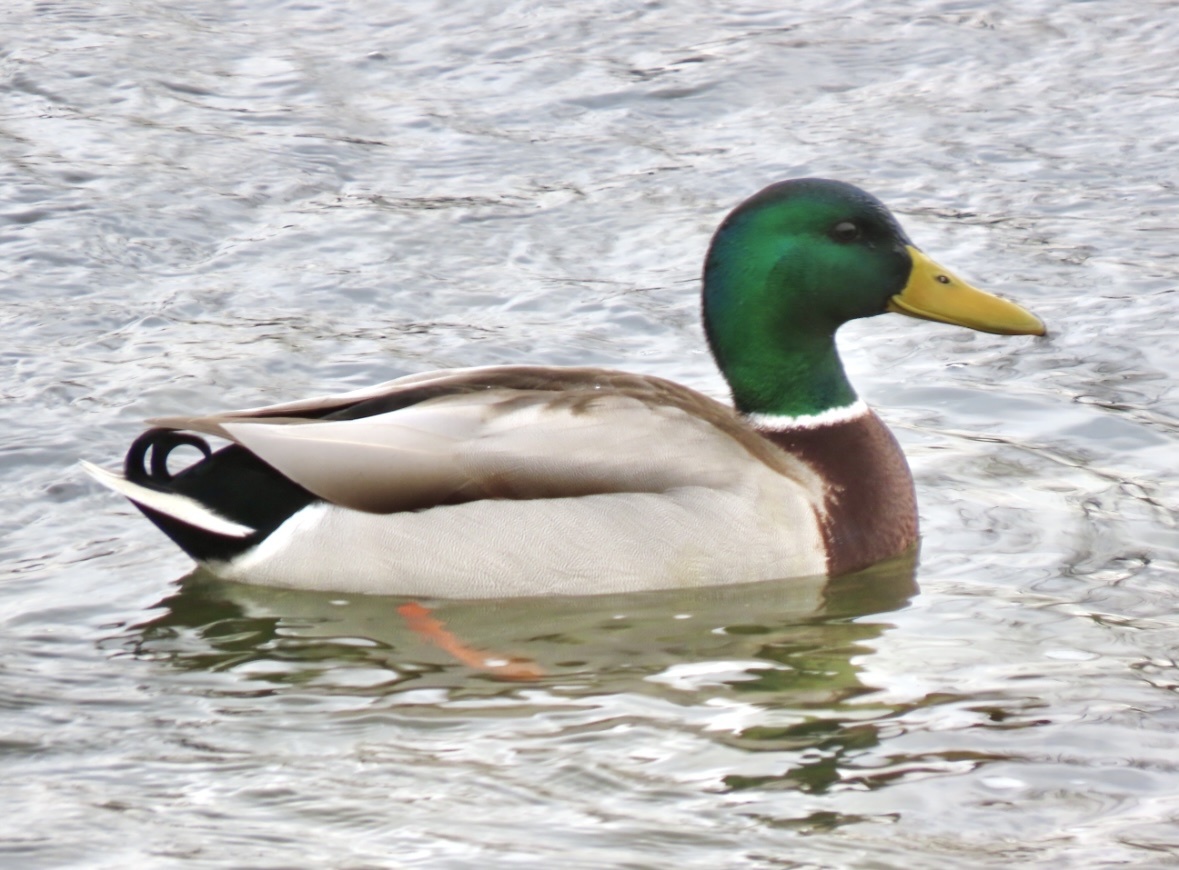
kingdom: Animalia
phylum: Chordata
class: Aves
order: Anseriformes
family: Anatidae
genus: Anas
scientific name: Anas platyrhynchos
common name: Mallard
